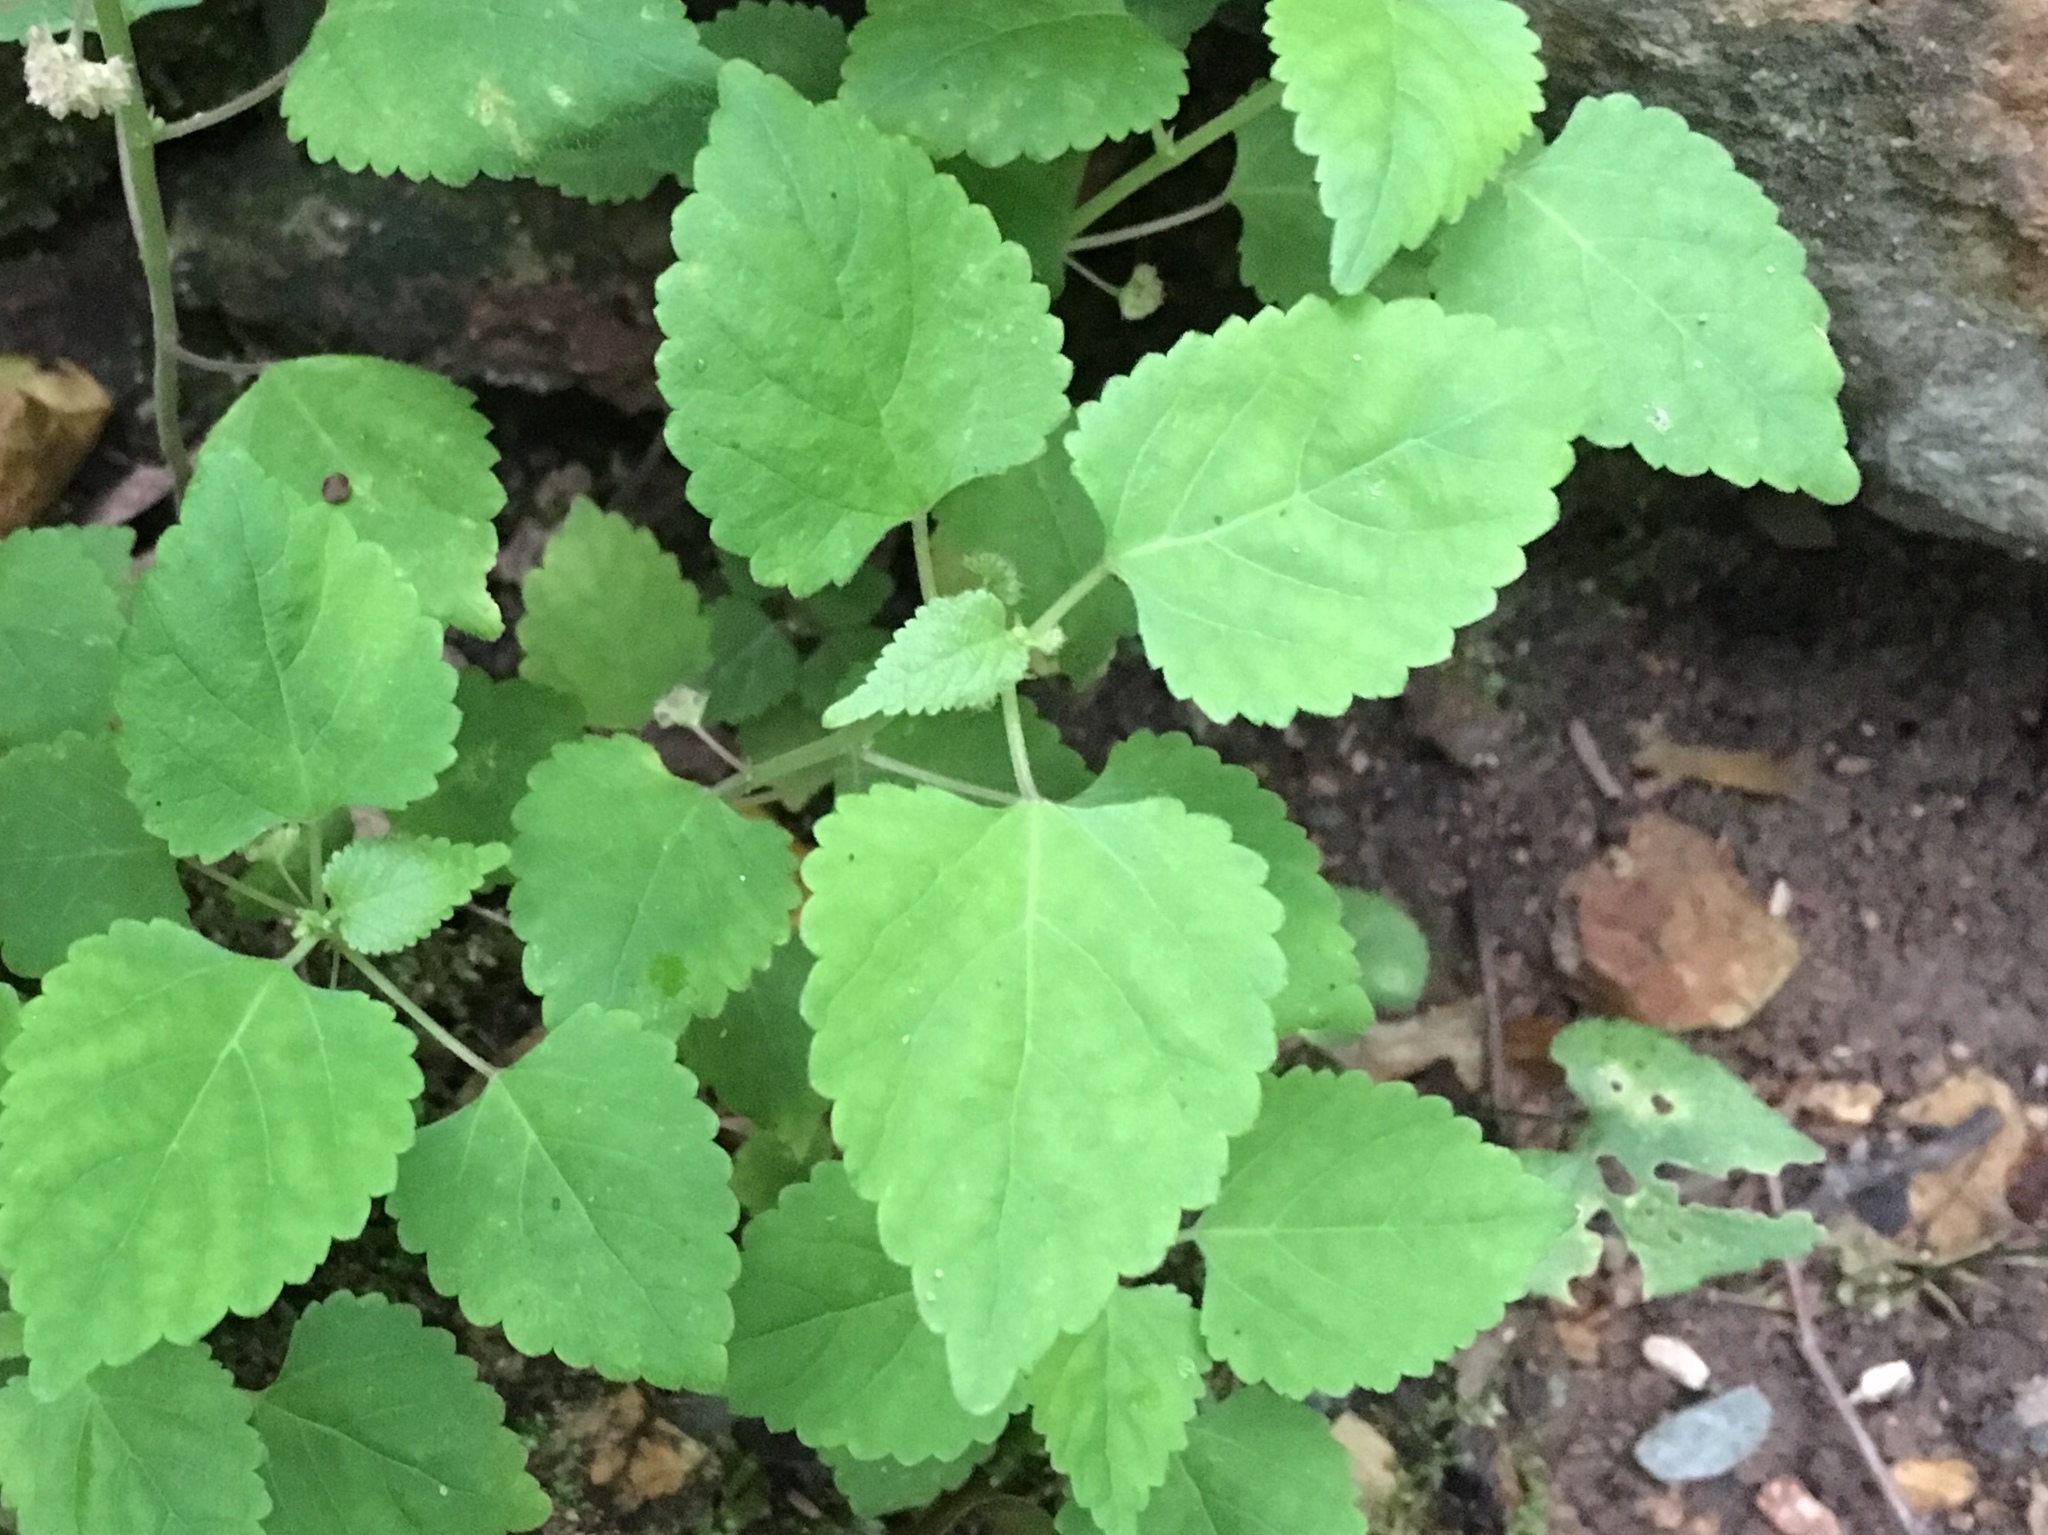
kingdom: Plantae
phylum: Tracheophyta
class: Magnoliopsida
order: Rosales
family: Moraceae
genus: Fatoua
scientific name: Fatoua villosa
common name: Hairy crabweed
